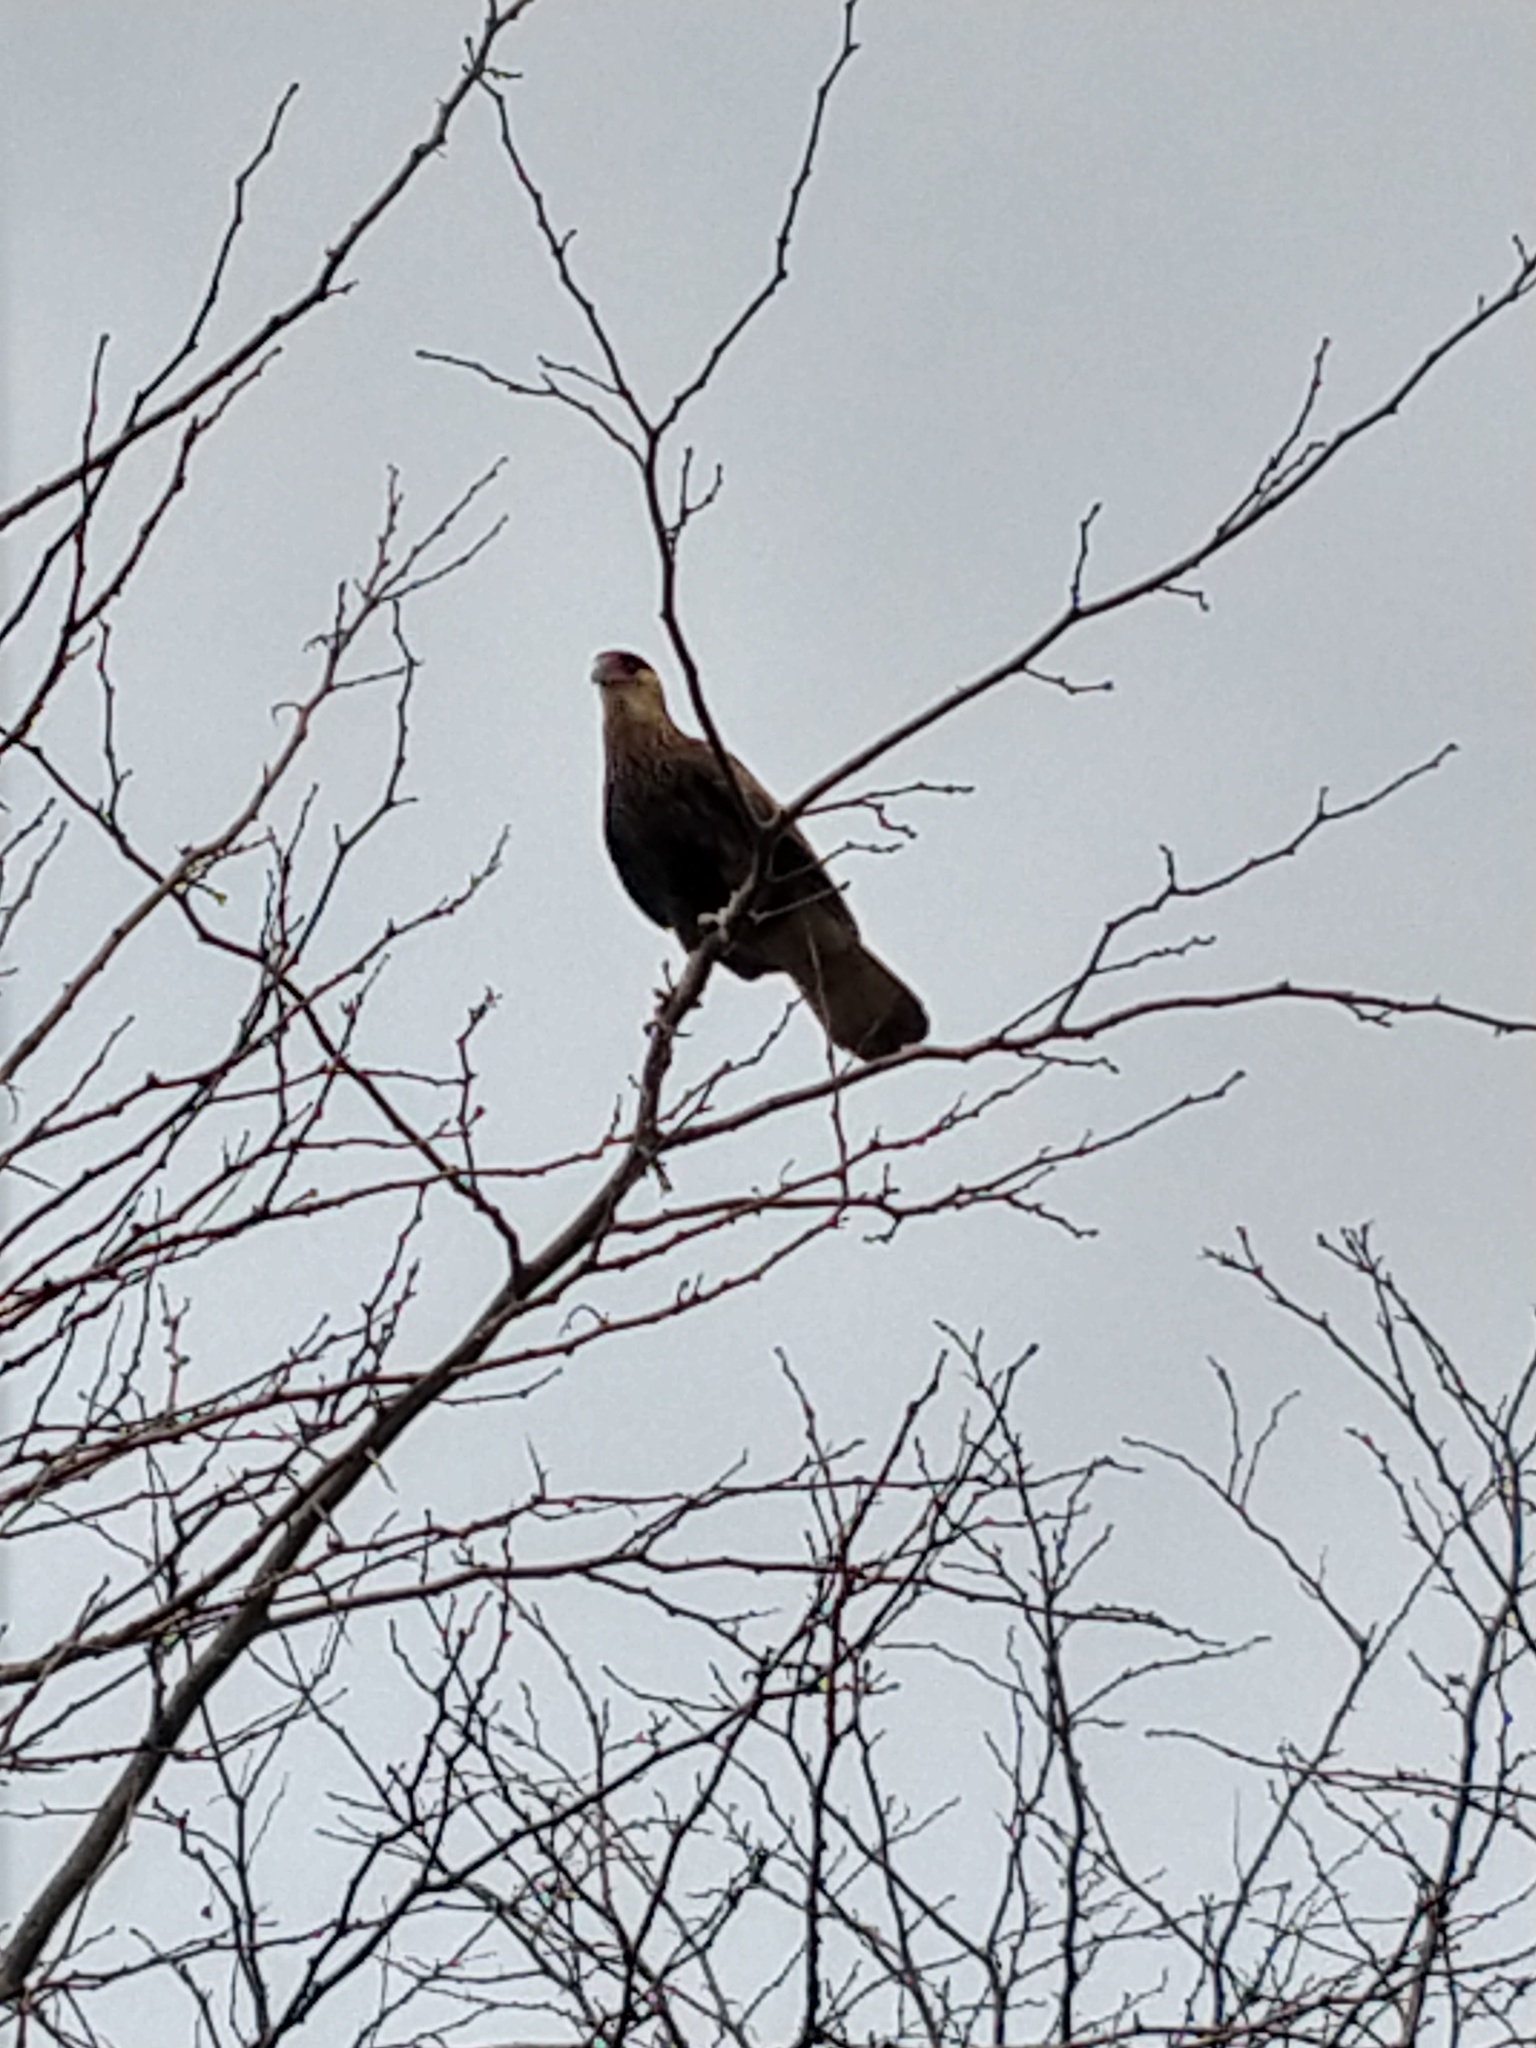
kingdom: Animalia
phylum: Chordata
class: Aves
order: Falconiformes
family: Falconidae
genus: Caracara
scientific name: Caracara plancus
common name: Southern caracara
